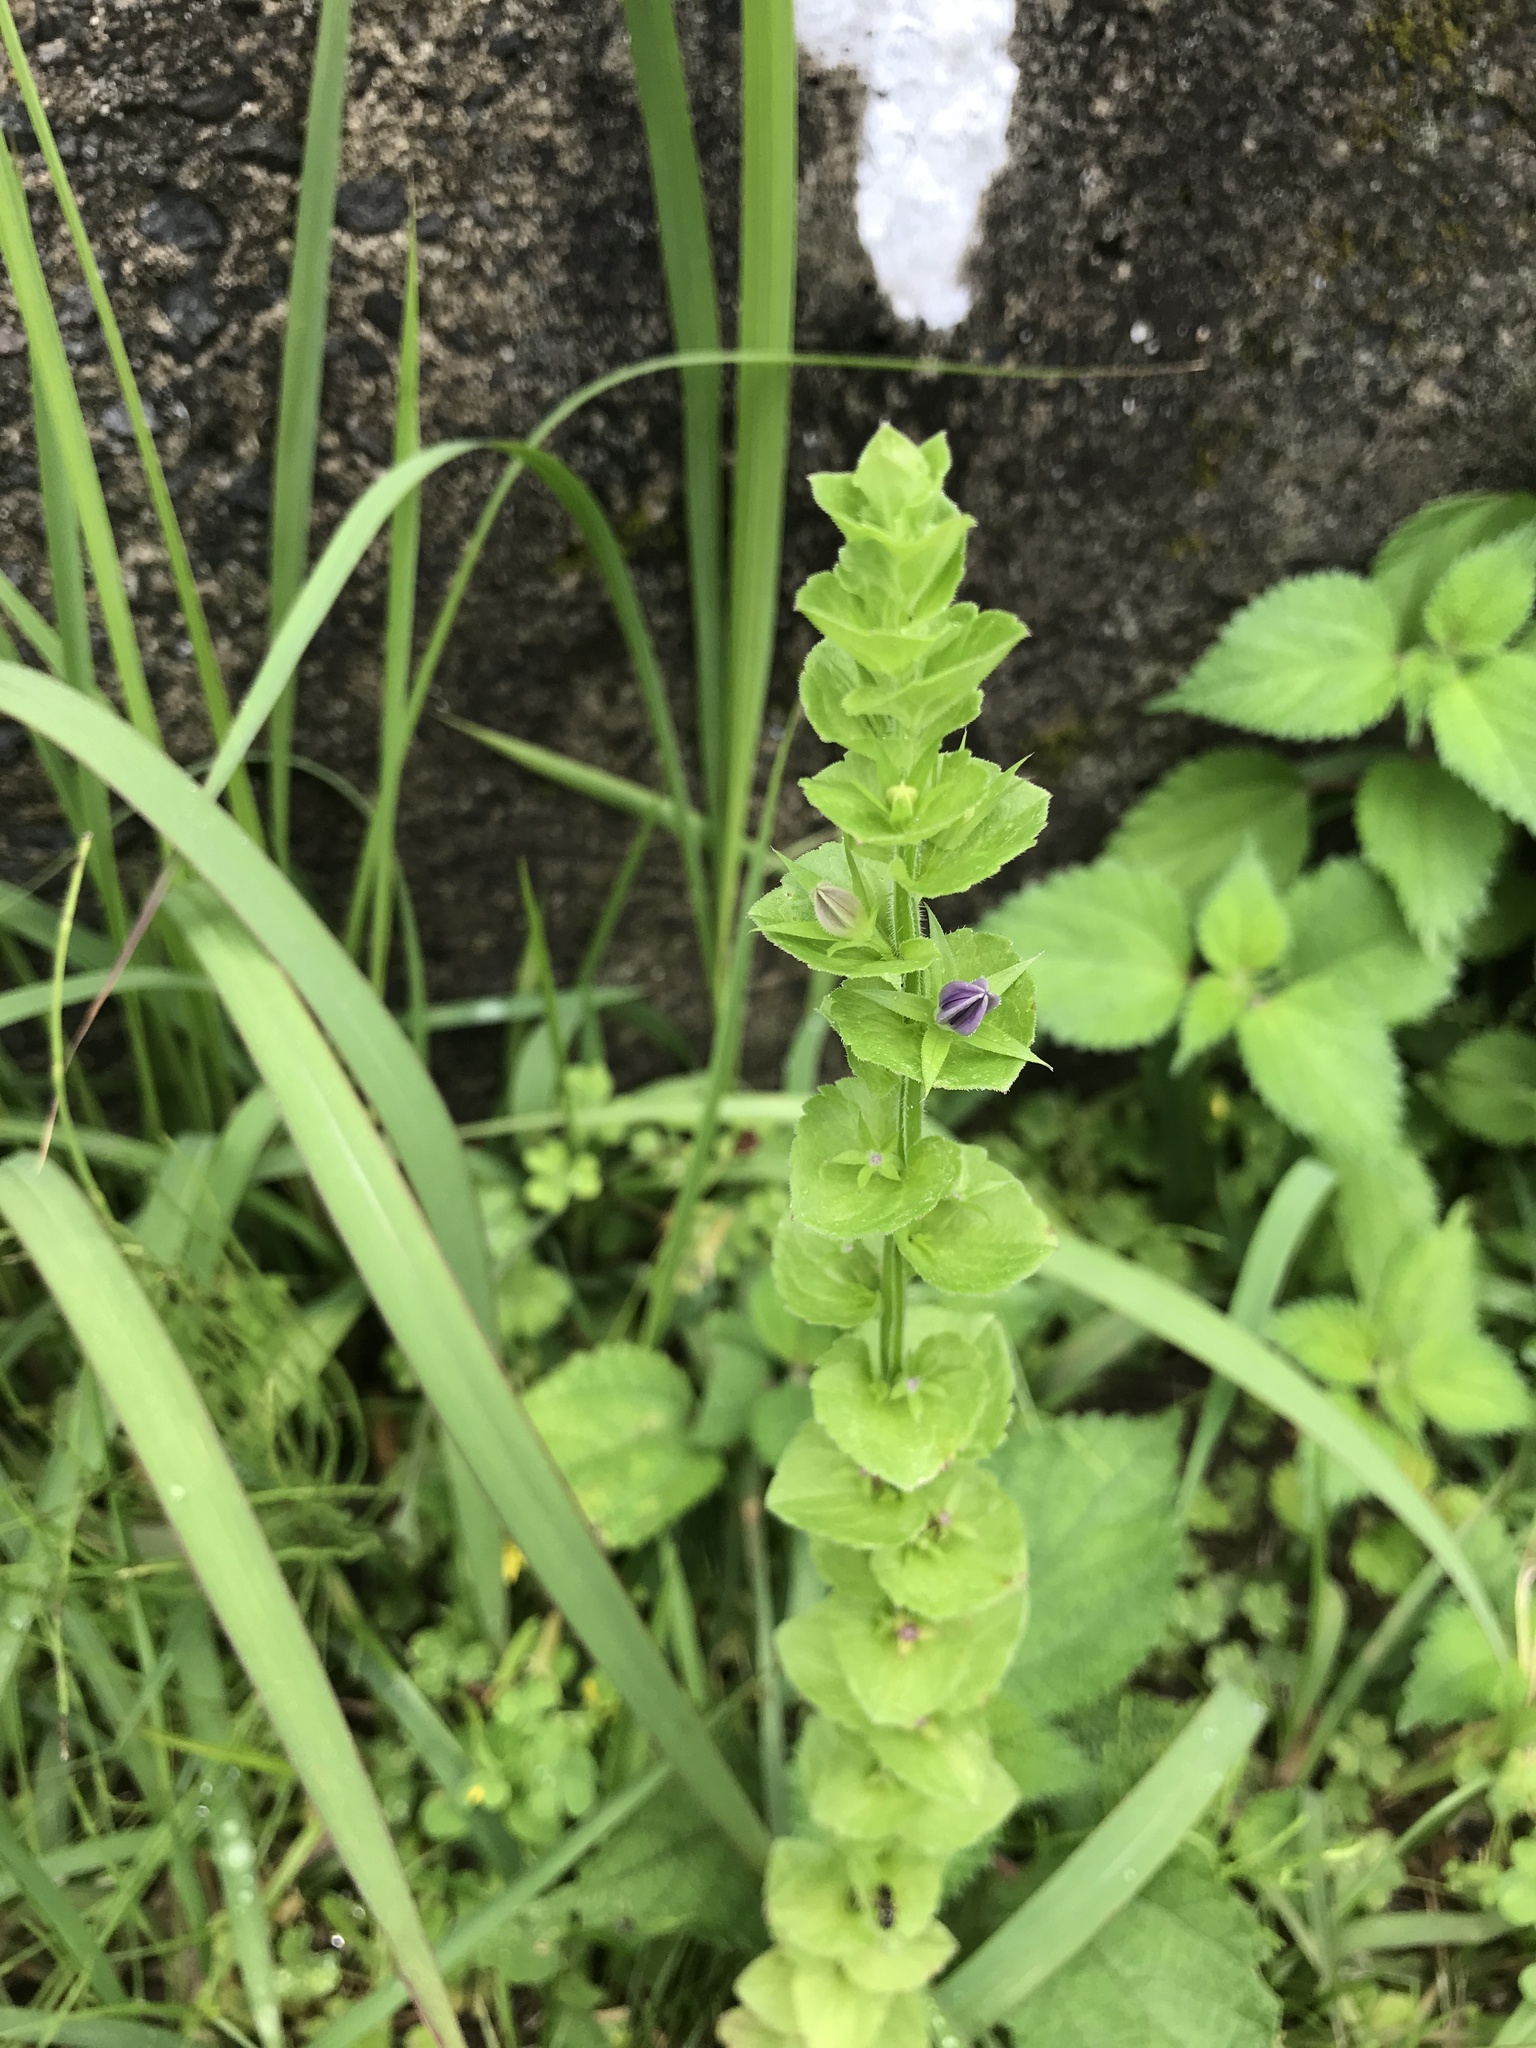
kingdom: Plantae
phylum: Tracheophyta
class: Magnoliopsida
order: Asterales
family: Campanulaceae
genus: Triodanis
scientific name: Triodanis perfoliata
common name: Clasping venus' looking-glass
